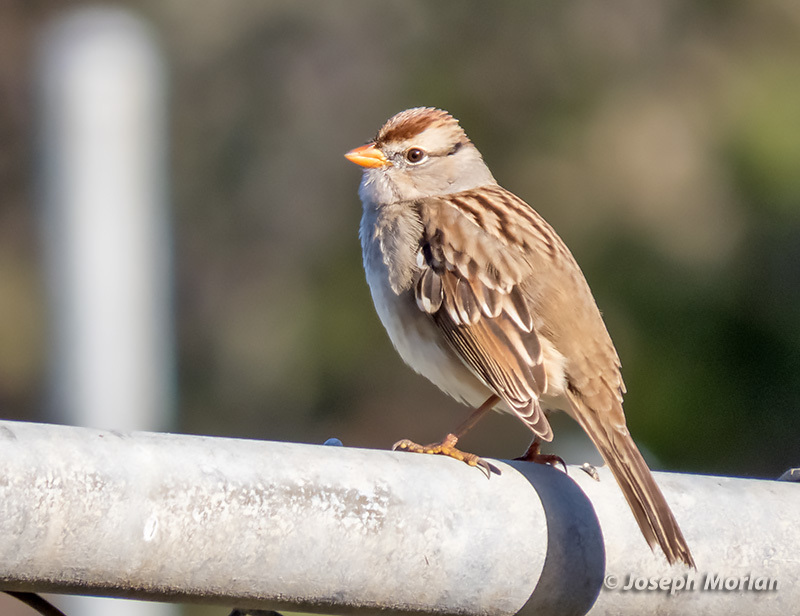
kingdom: Animalia
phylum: Chordata
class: Aves
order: Passeriformes
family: Passerellidae
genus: Zonotrichia
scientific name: Zonotrichia leucophrys
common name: White-crowned sparrow
